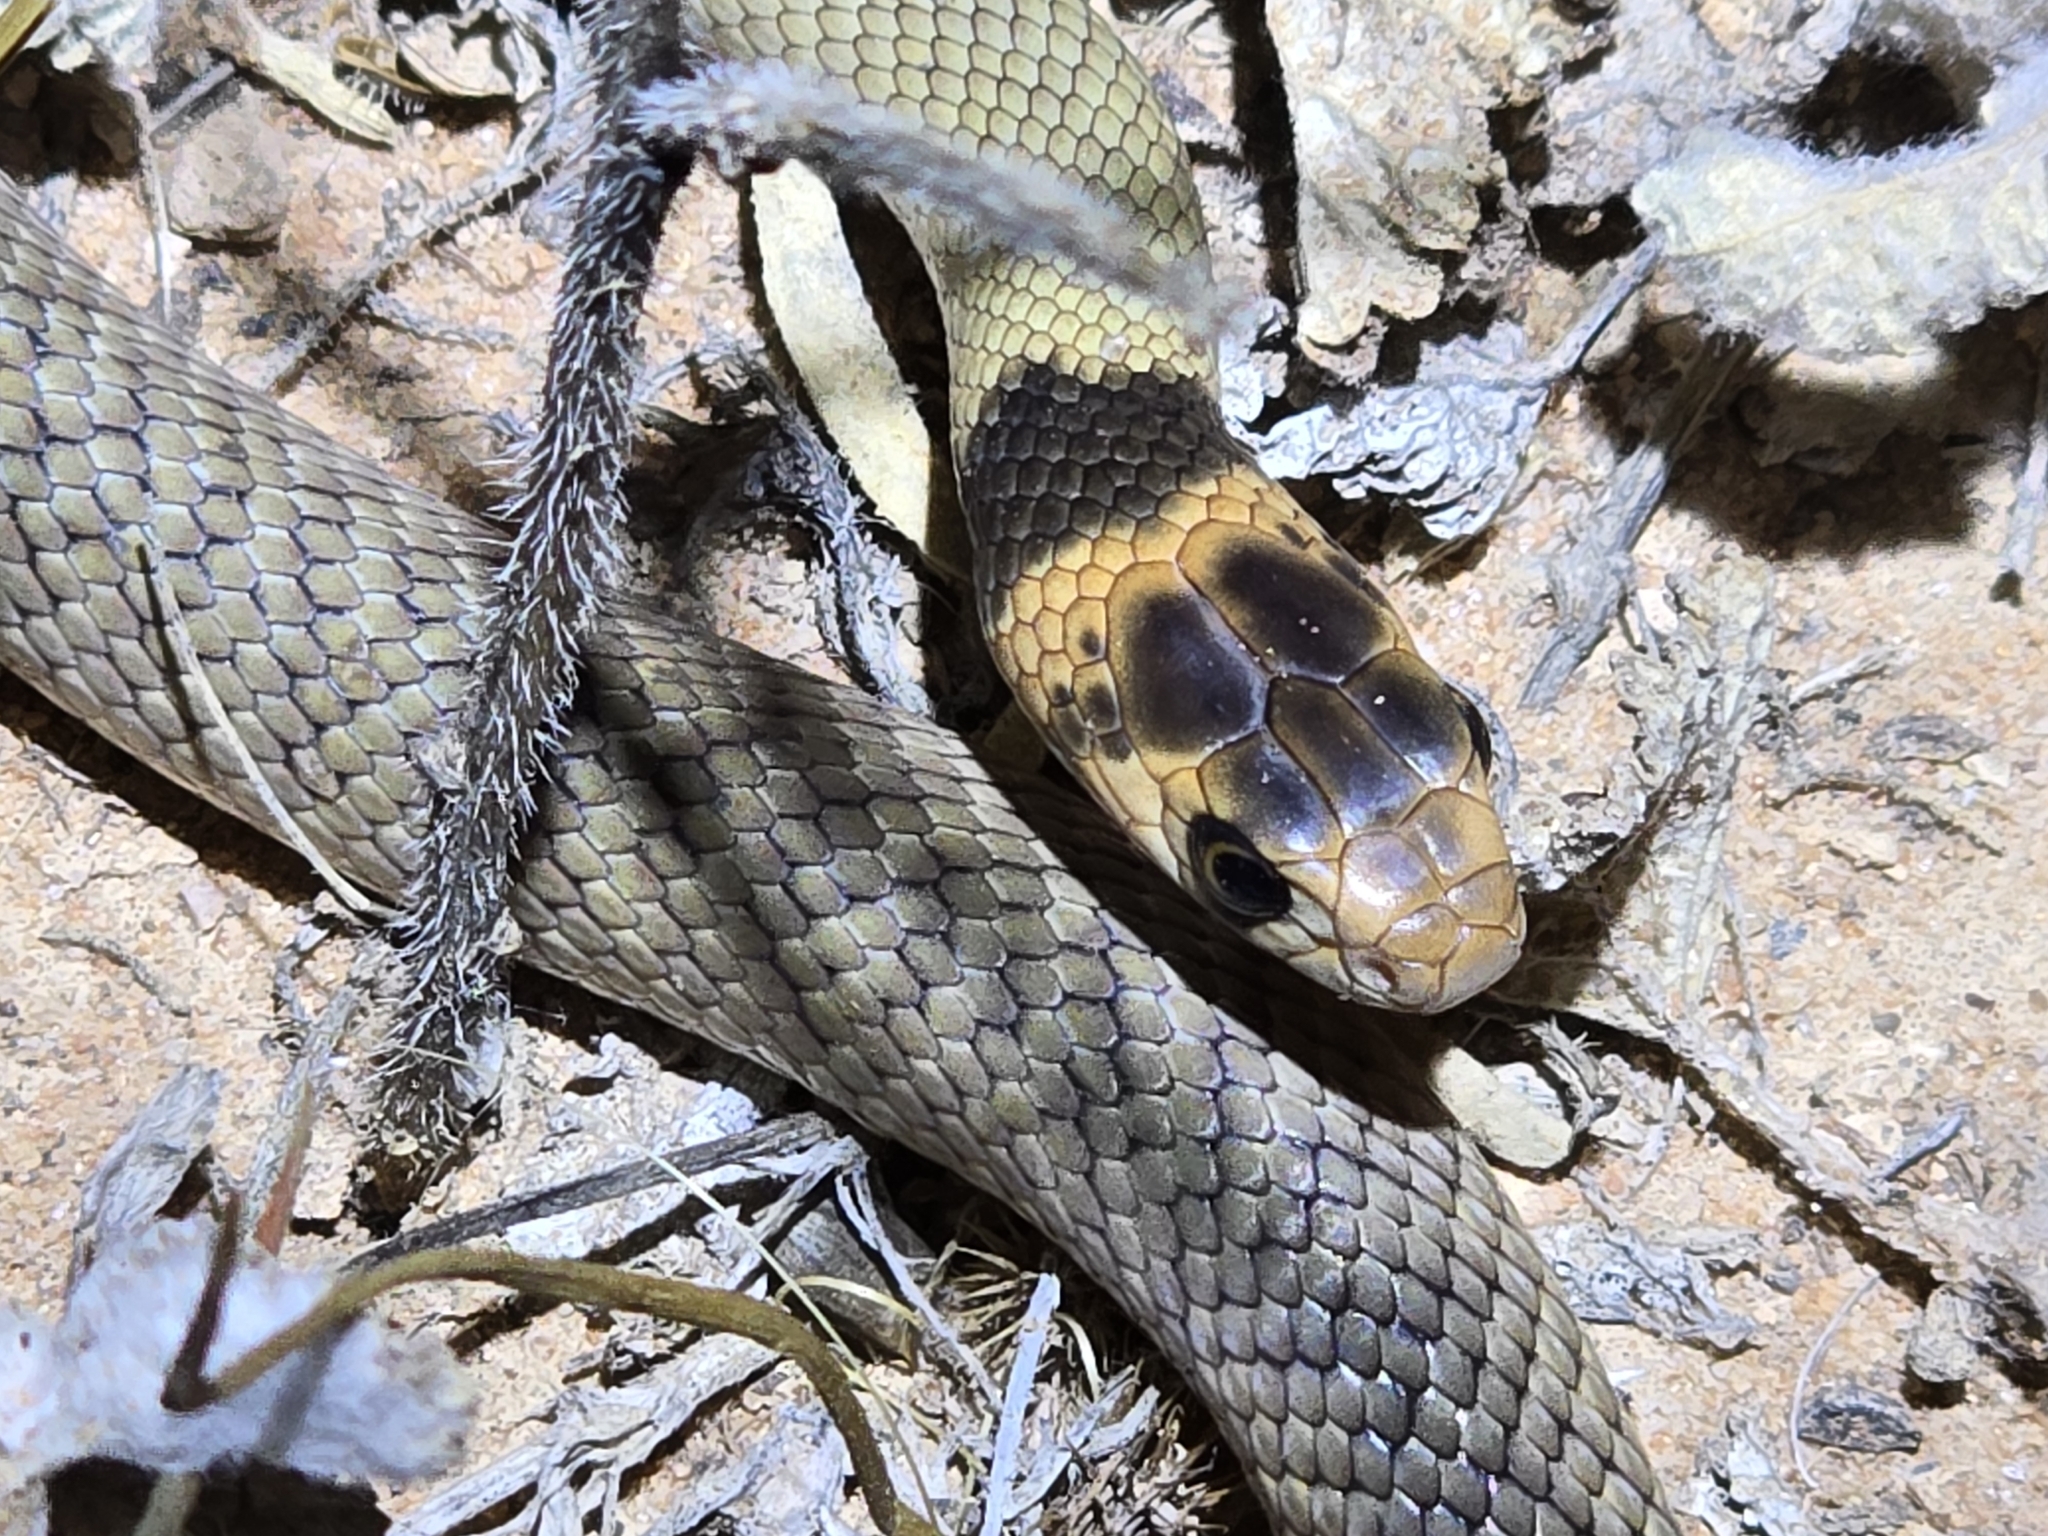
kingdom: Animalia
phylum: Chordata
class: Squamata
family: Elapidae
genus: Pseudonaja
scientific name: Pseudonaja textilis
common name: Eastern brown snake
